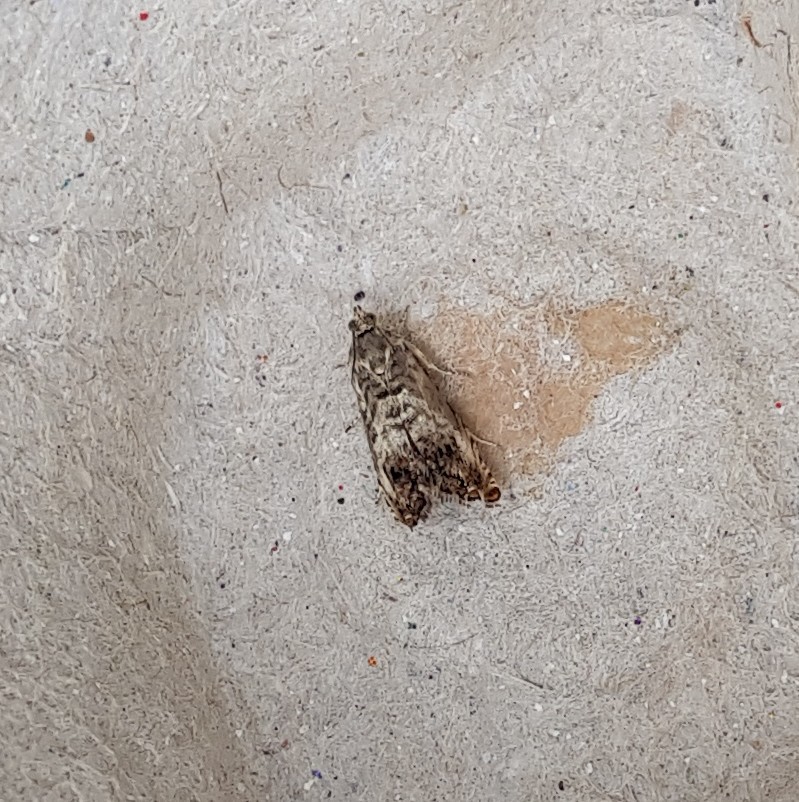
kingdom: Animalia
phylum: Arthropoda
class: Insecta
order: Lepidoptera
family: Tortricidae
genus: Cydia
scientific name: Cydia pomonella
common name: Codling moth
